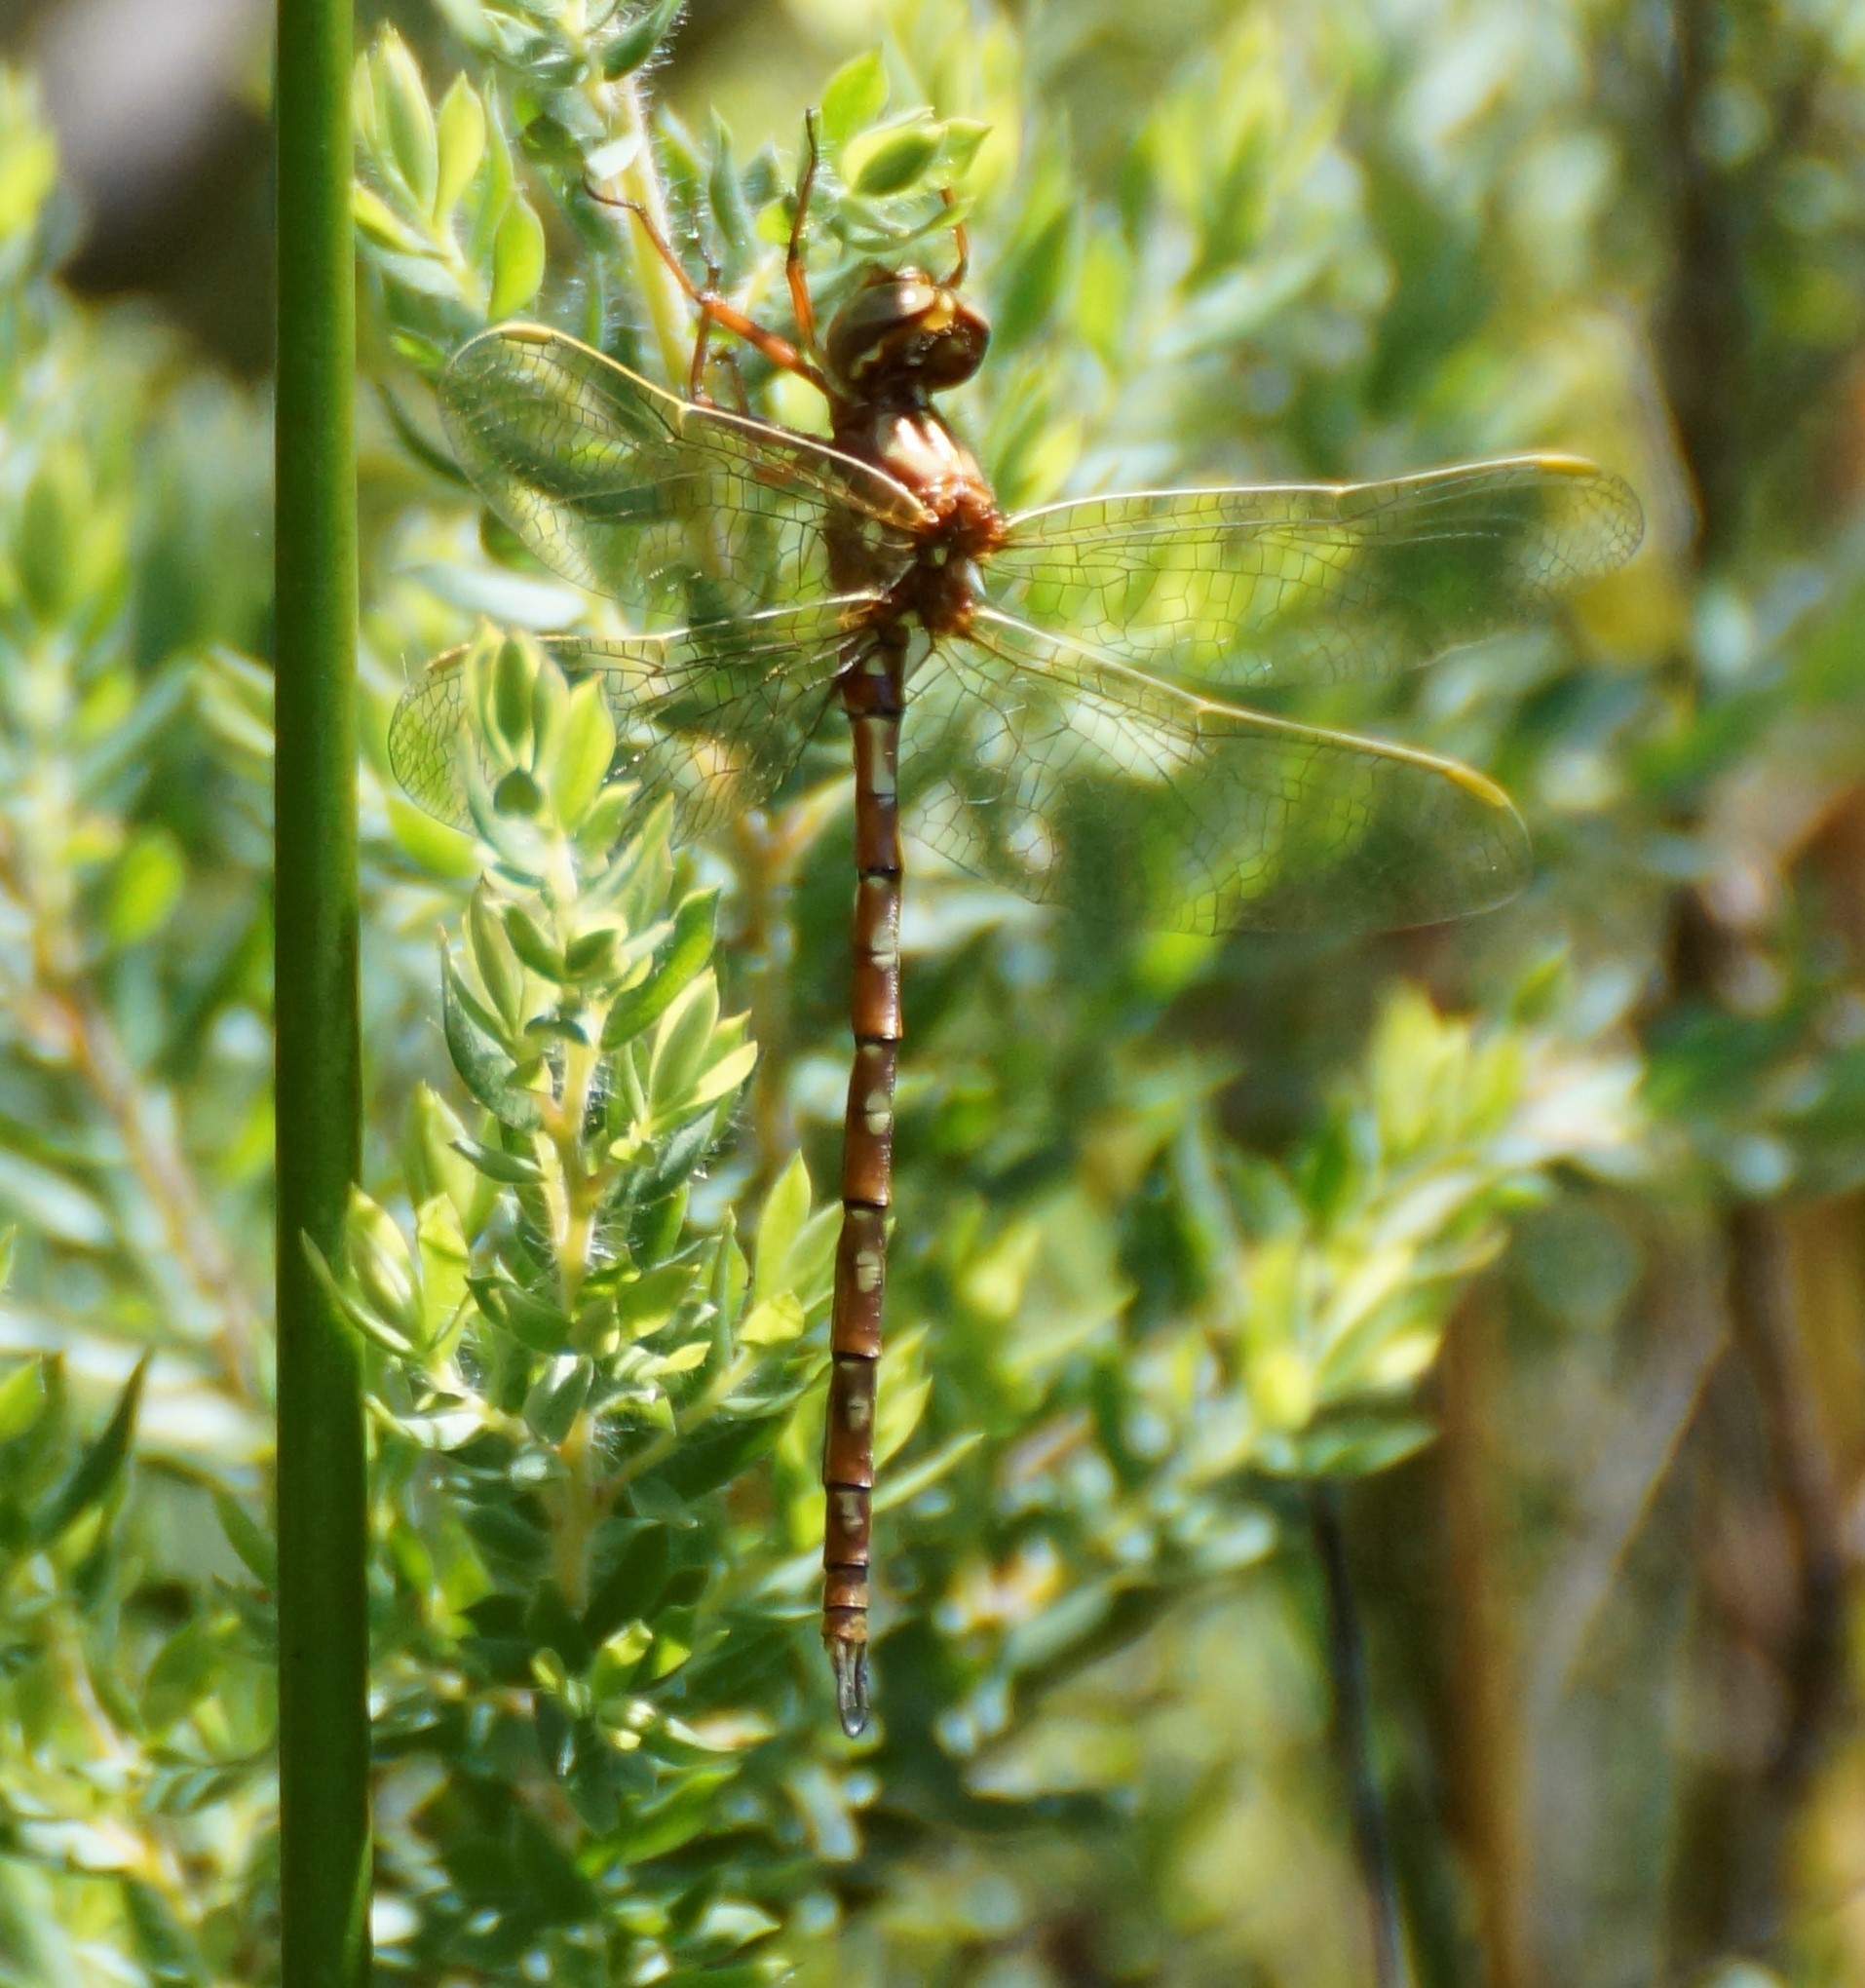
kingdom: Animalia
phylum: Arthropoda
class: Insecta
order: Odonata
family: Synthemistidae
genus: Archaeosynthemis
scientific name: Archaeosynthemis orientalis
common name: Eastern brown tigertail
